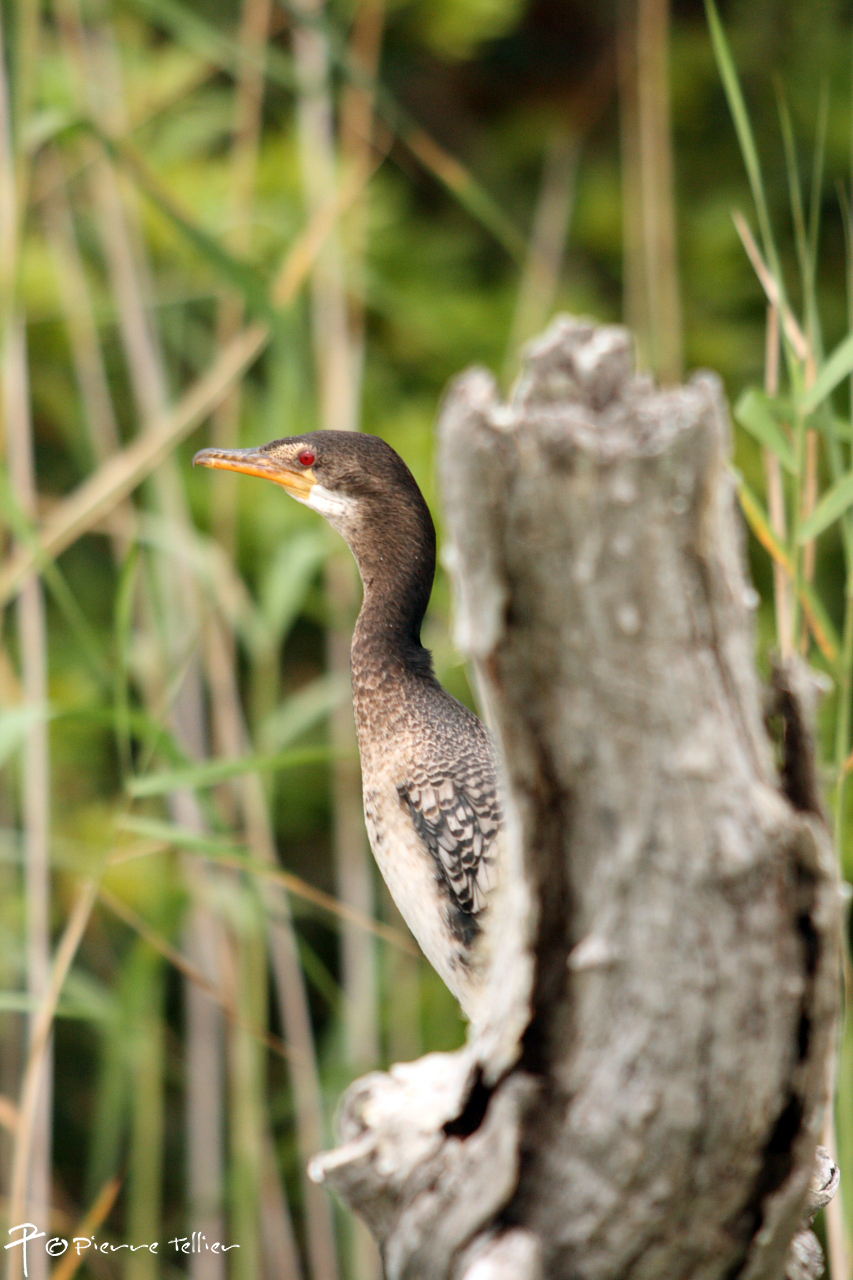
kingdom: Animalia
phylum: Chordata
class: Aves
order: Suliformes
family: Phalacrocoracidae
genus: Microcarbo
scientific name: Microcarbo africanus
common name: Long-tailed cormorant
